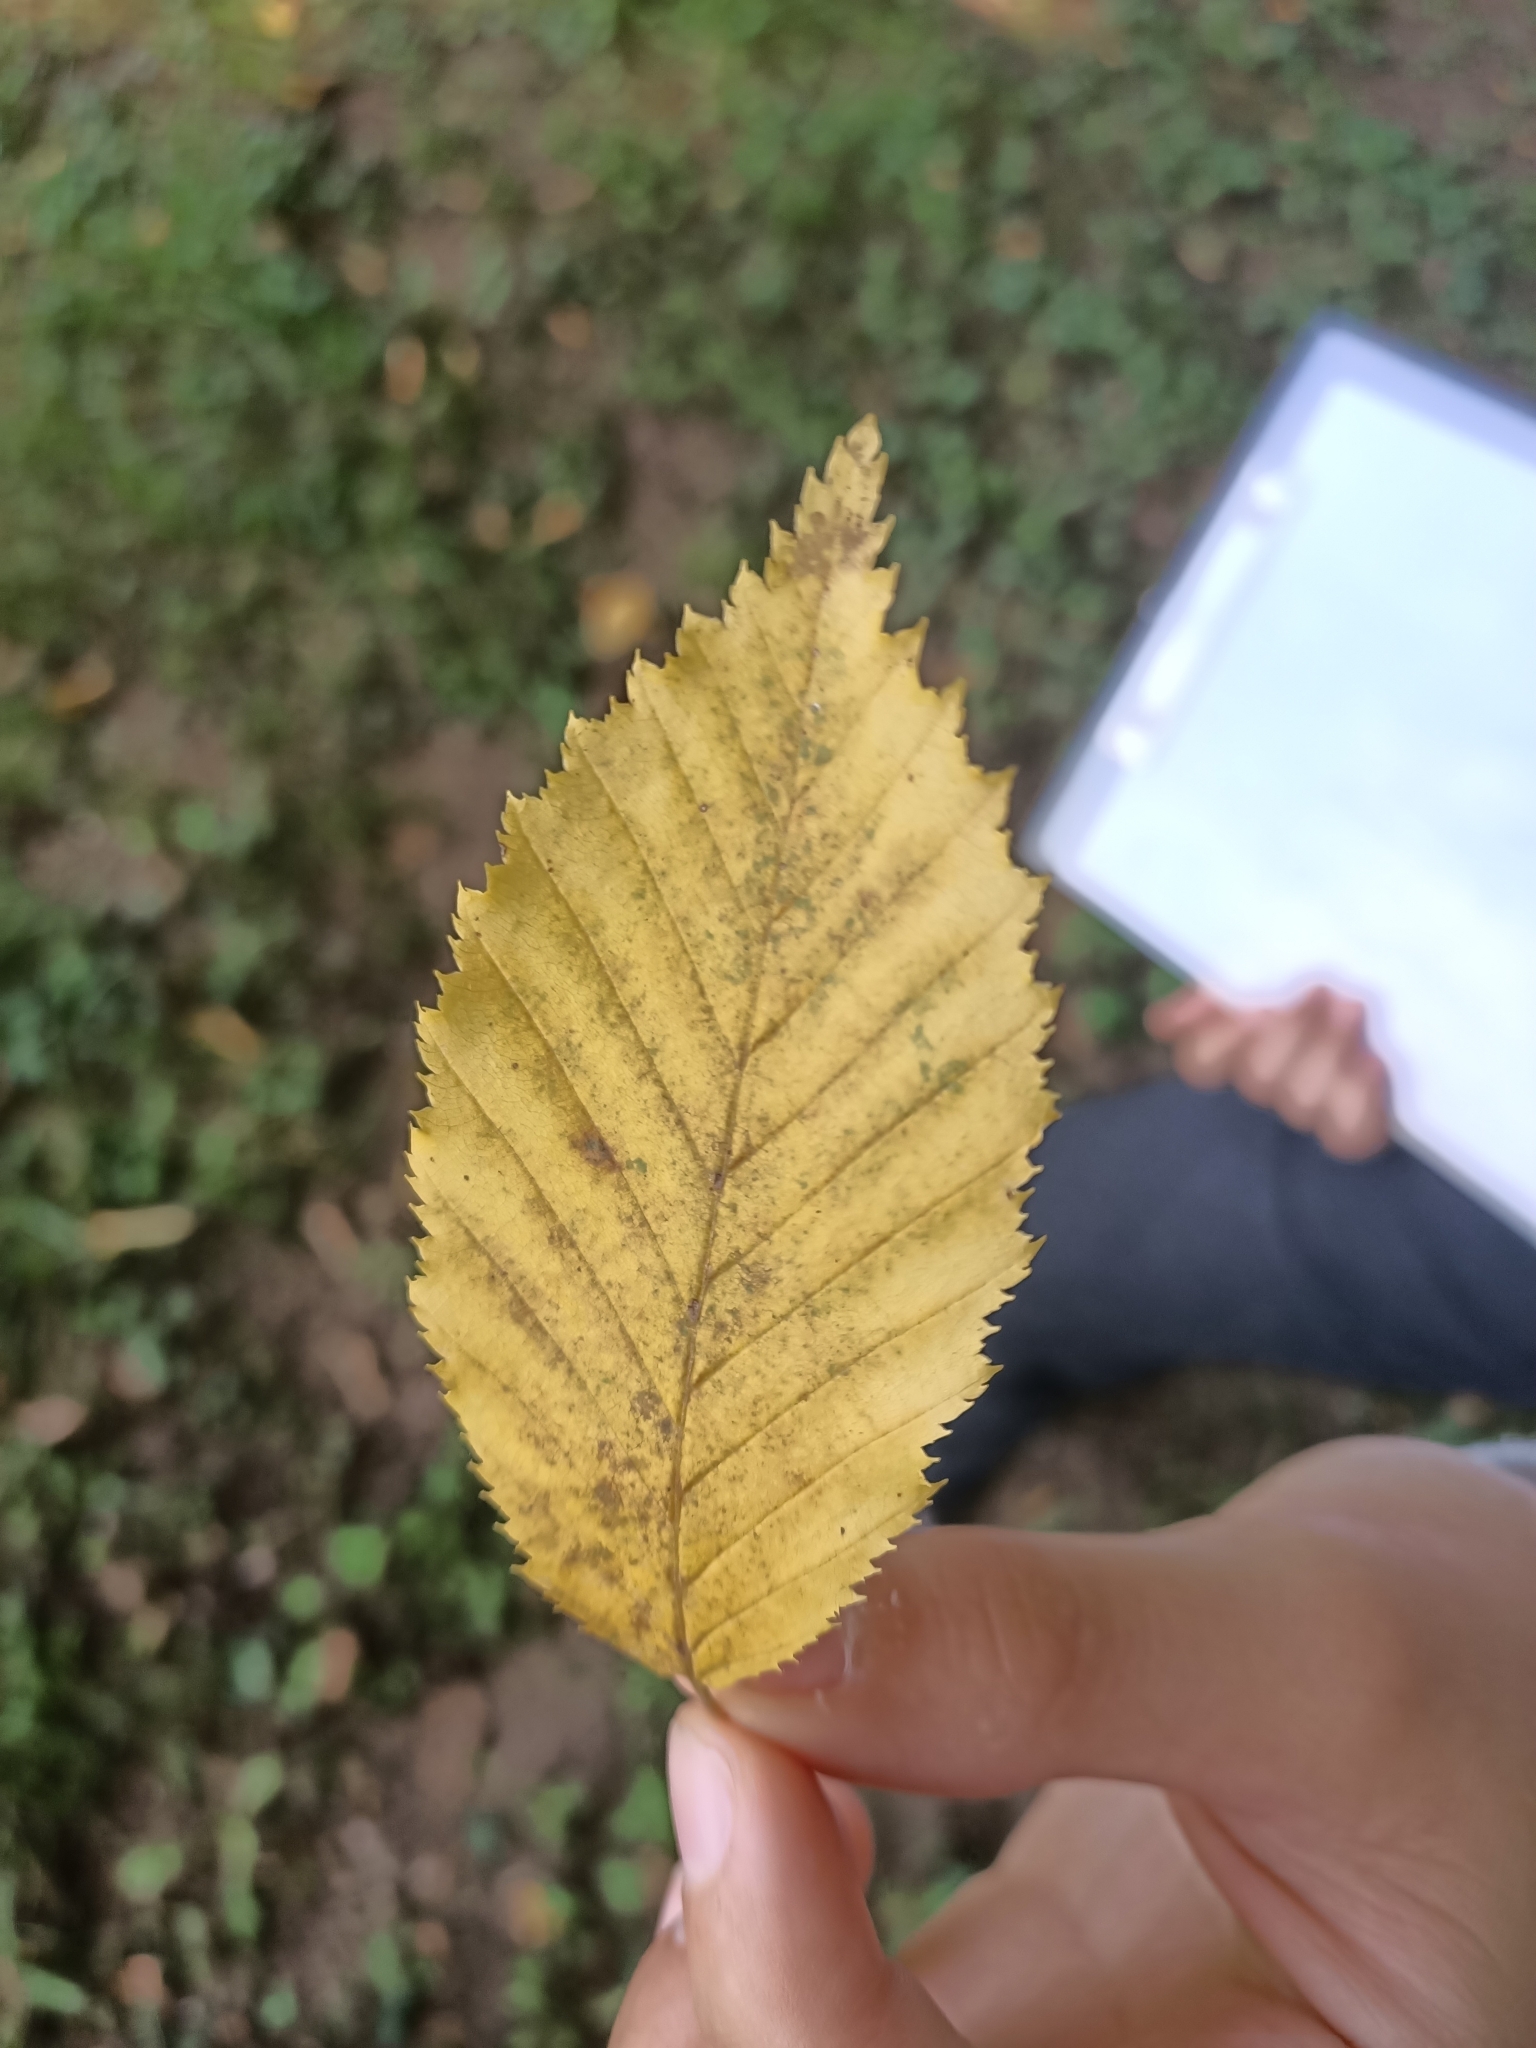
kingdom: Plantae
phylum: Tracheophyta
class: Magnoliopsida
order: Fagales
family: Betulaceae
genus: Ostrya
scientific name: Ostrya carpinifolia
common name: European hop-hornbeam
